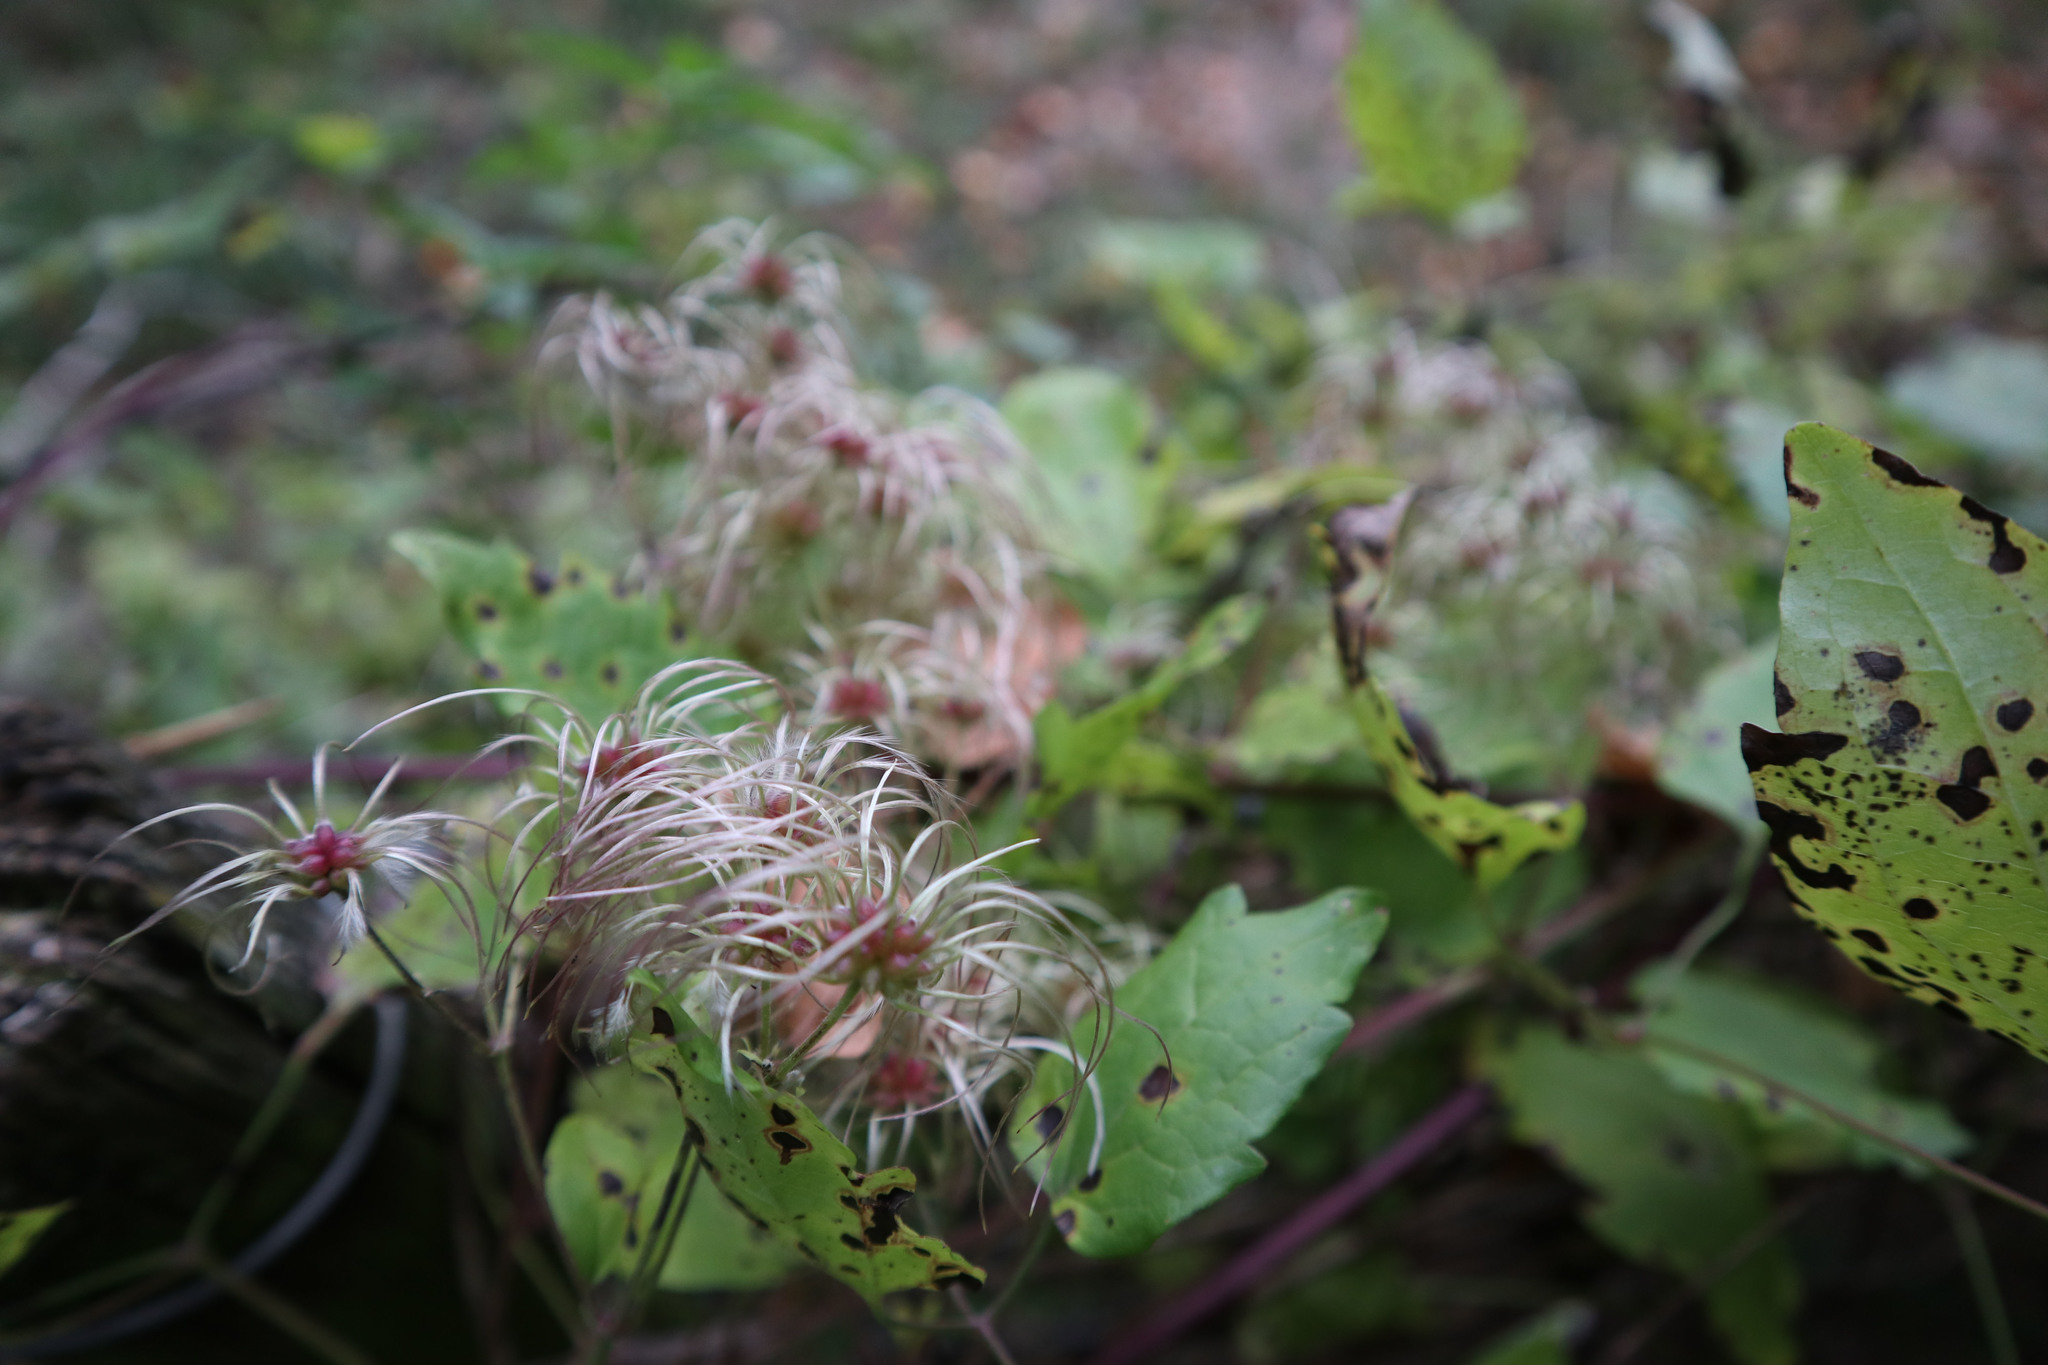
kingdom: Plantae
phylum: Tracheophyta
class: Magnoliopsida
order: Ranunculales
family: Ranunculaceae
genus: Clematis
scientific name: Clematis vitalba
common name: Evergreen clematis
